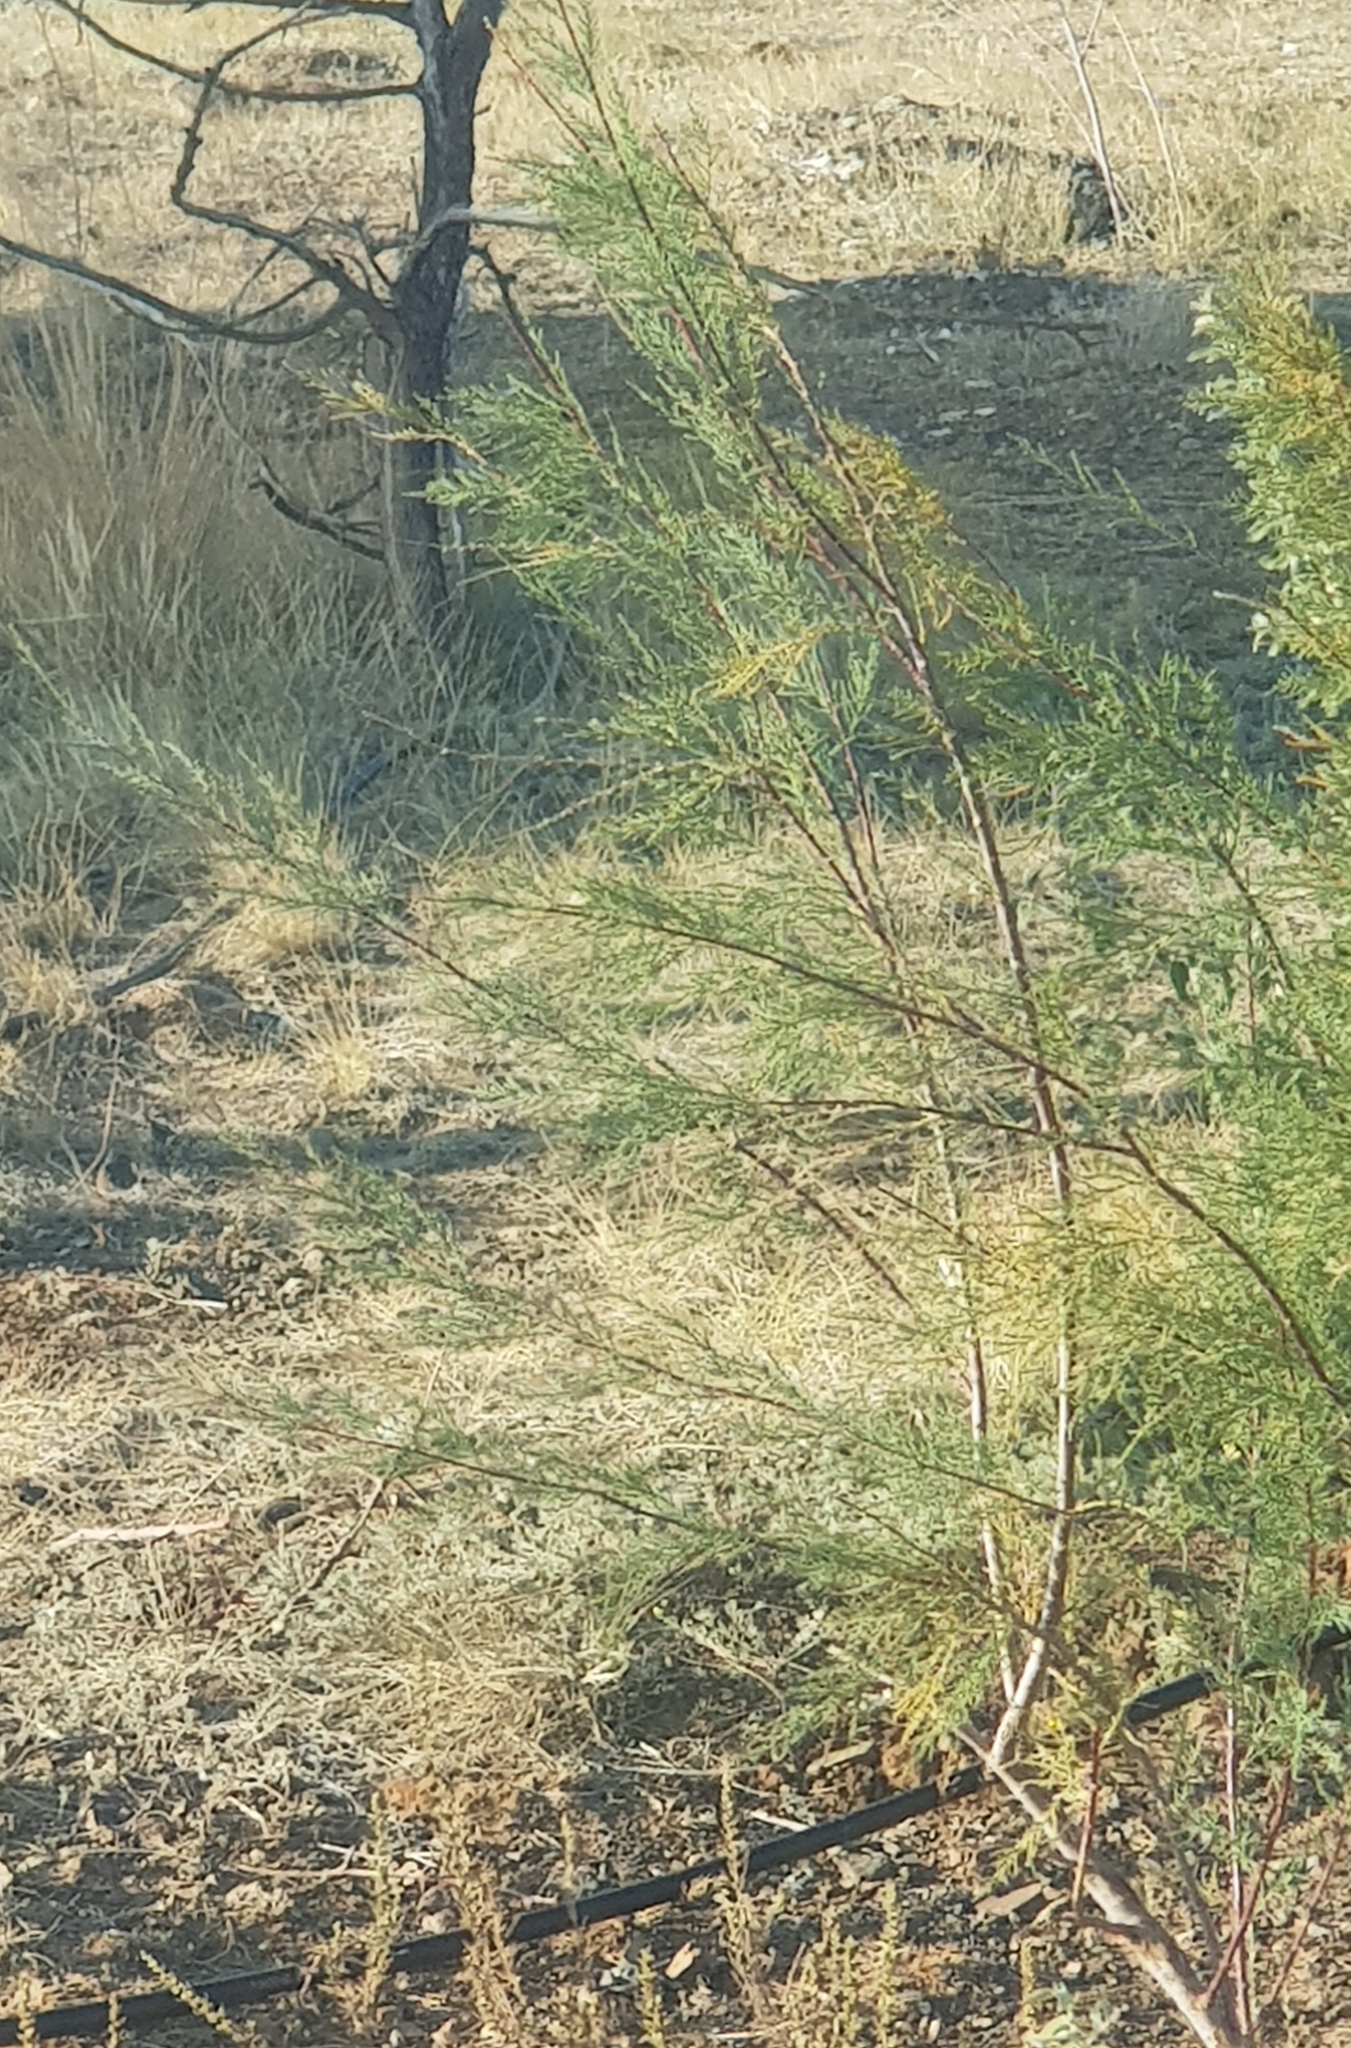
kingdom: Plantae
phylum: Tracheophyta
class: Magnoliopsida
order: Caryophyllales
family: Tamaricaceae
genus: Tamarix
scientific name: Tamarix ramosissima
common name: Pink tamarisk
